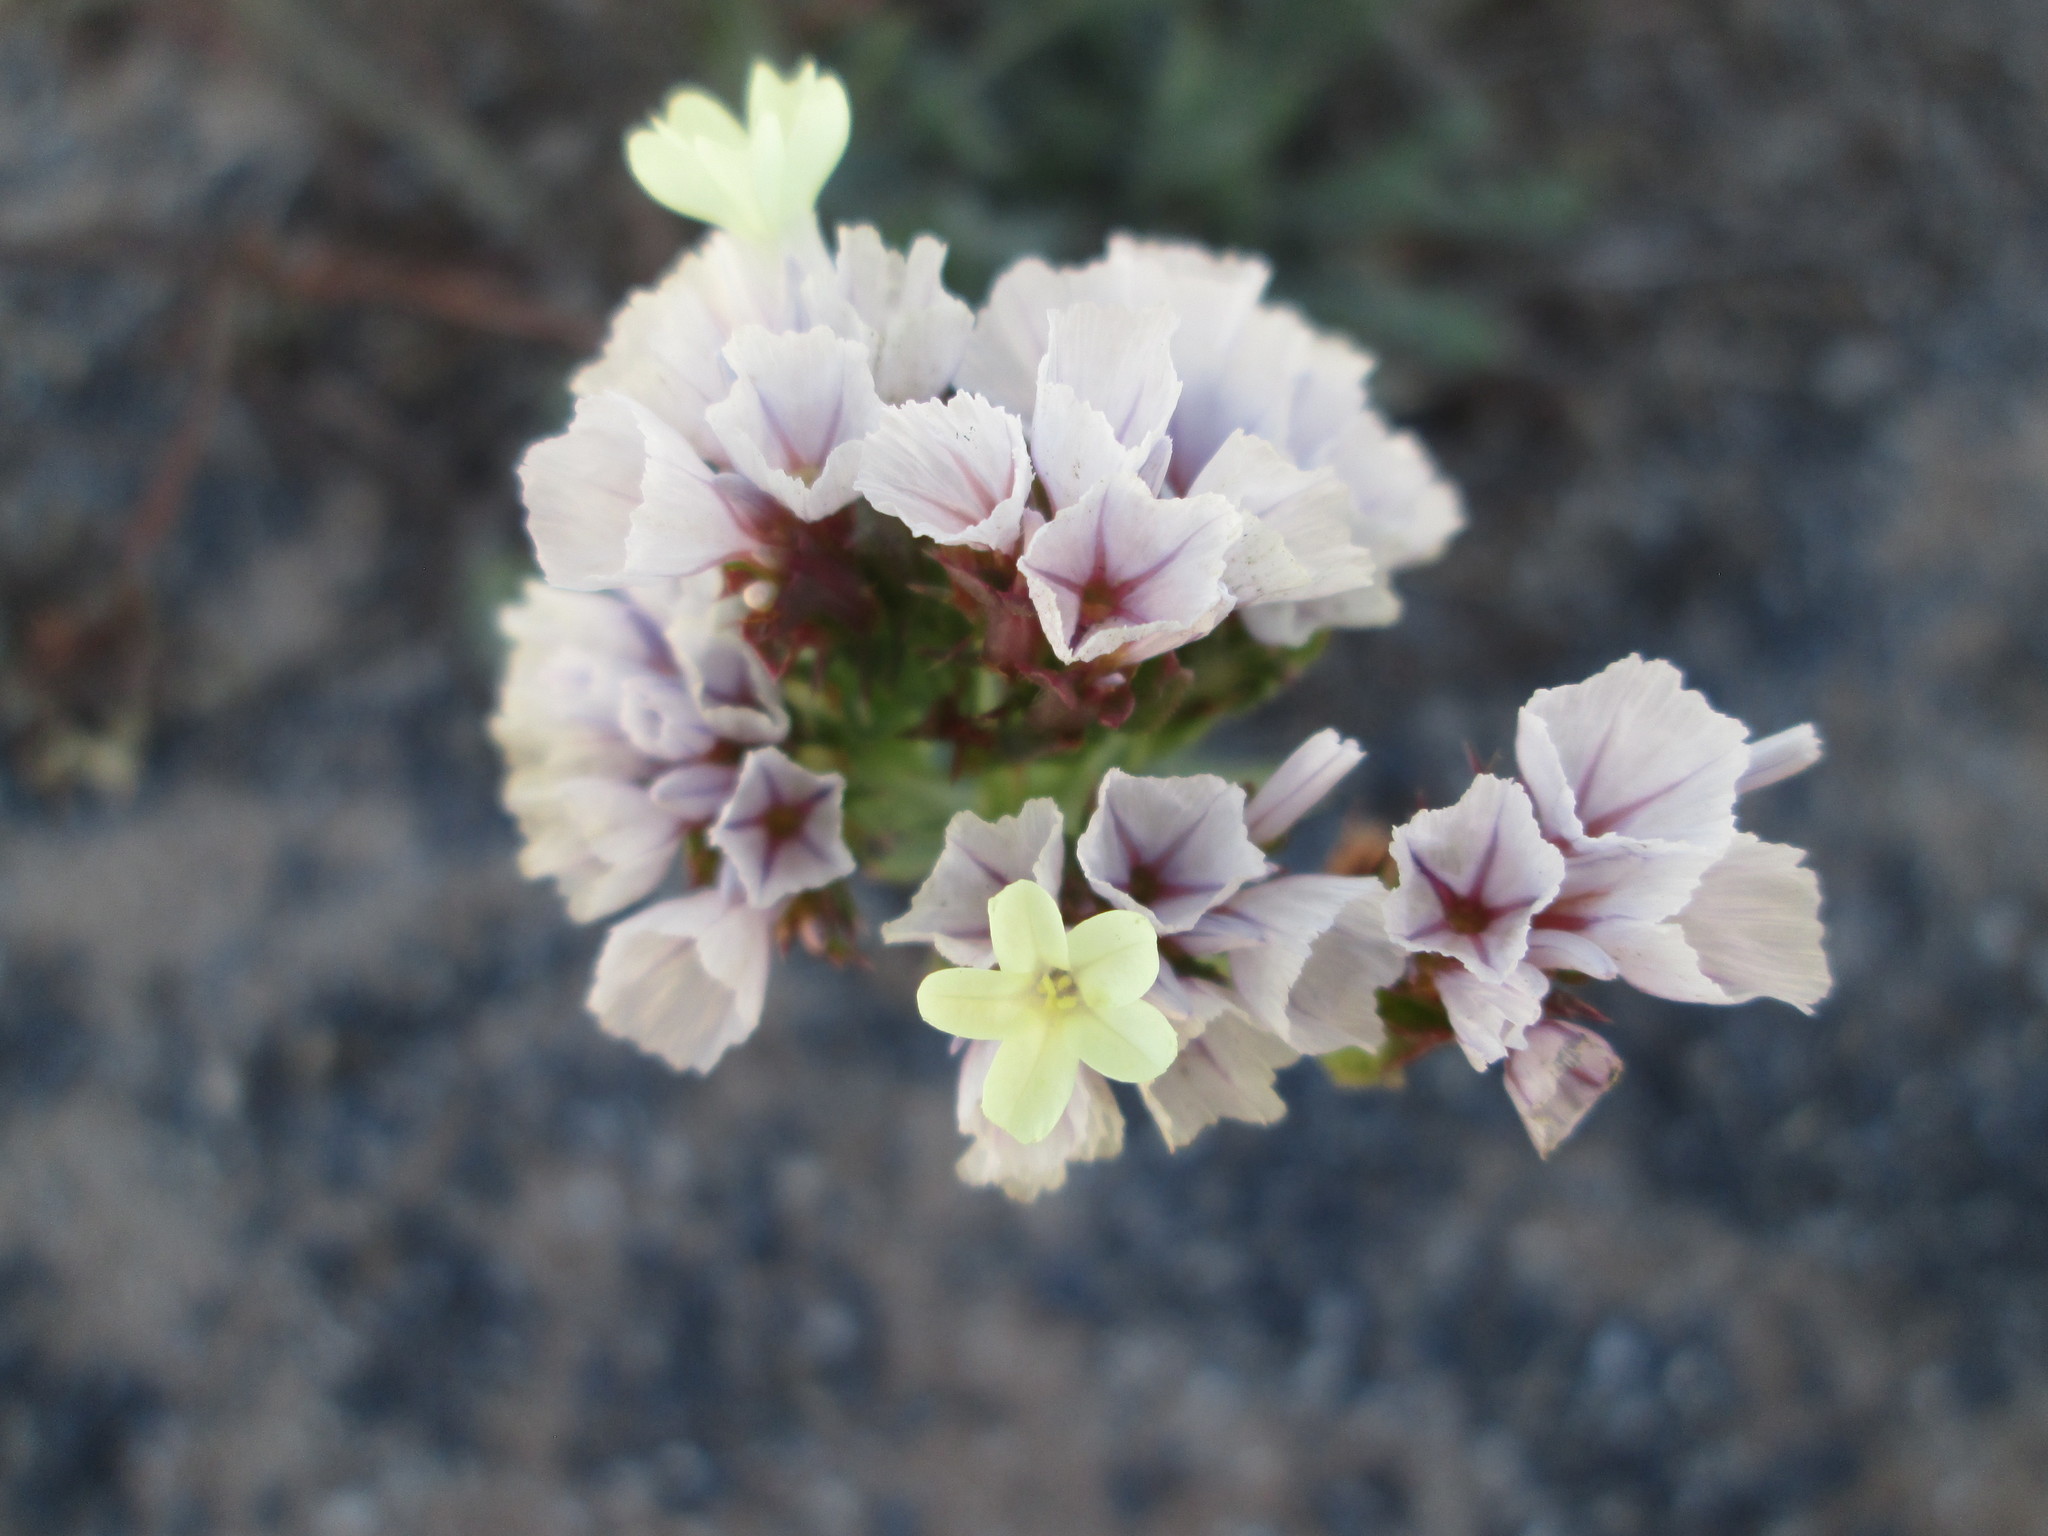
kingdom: Plantae
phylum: Tracheophyta
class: Magnoliopsida
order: Caryophyllales
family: Plumbaginaceae
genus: Limonium
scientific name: Limonium sinuatum
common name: Statice
